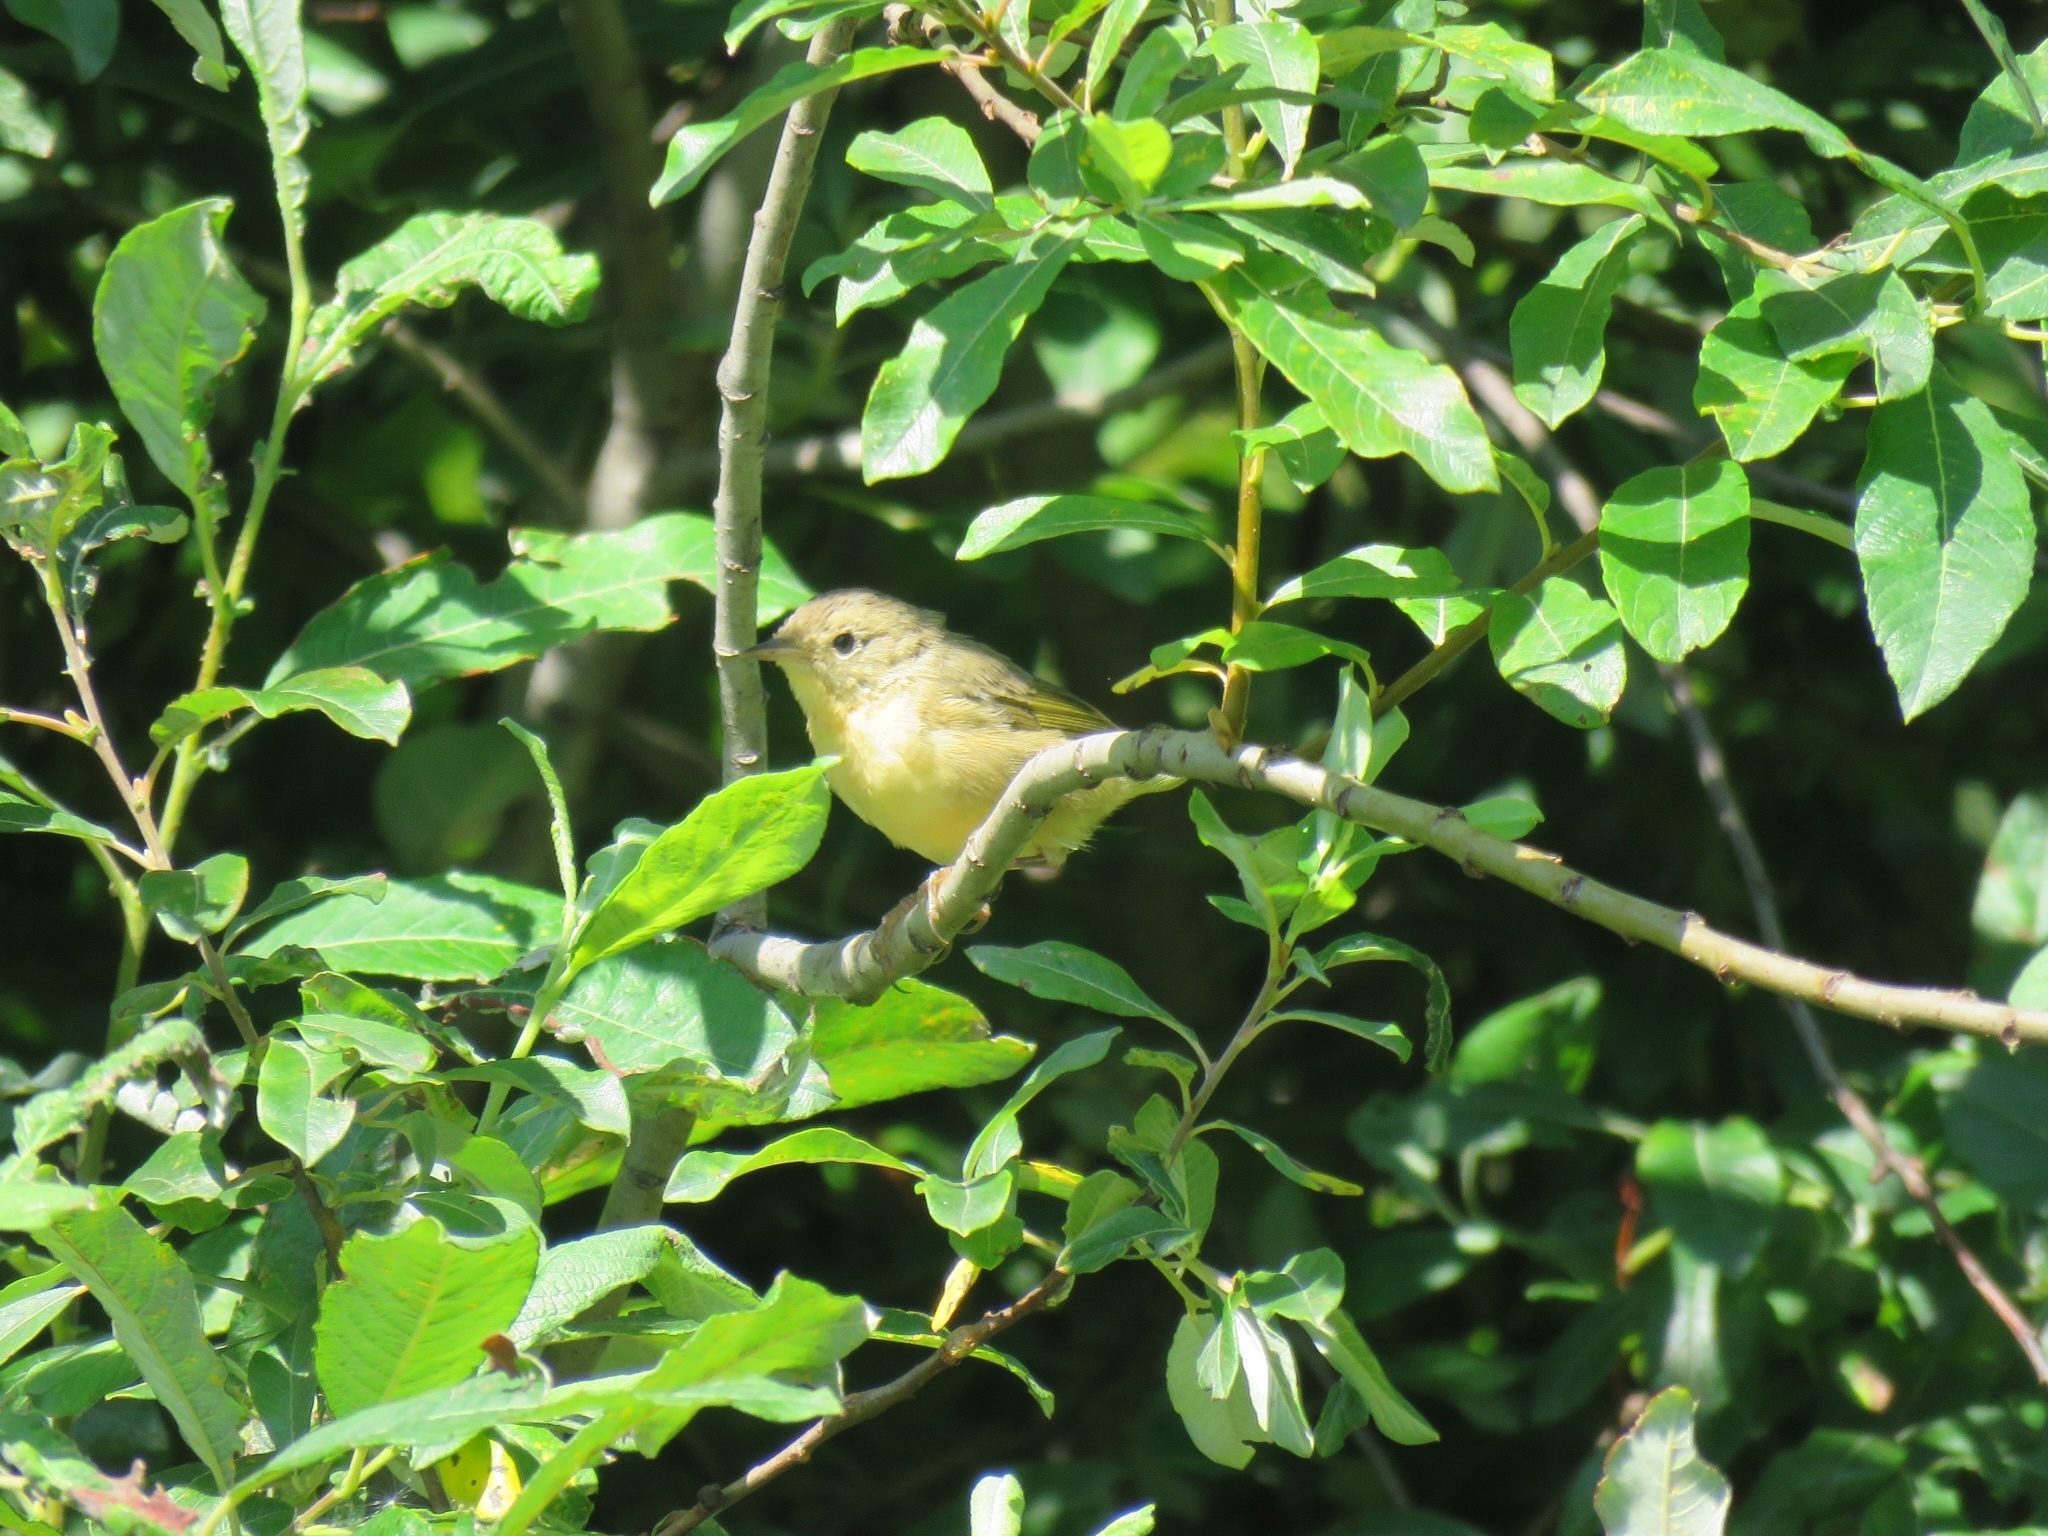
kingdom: Animalia
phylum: Chordata
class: Aves
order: Passeriformes
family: Parulidae
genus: Geothlypis
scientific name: Geothlypis trichas
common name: Common yellowthroat
